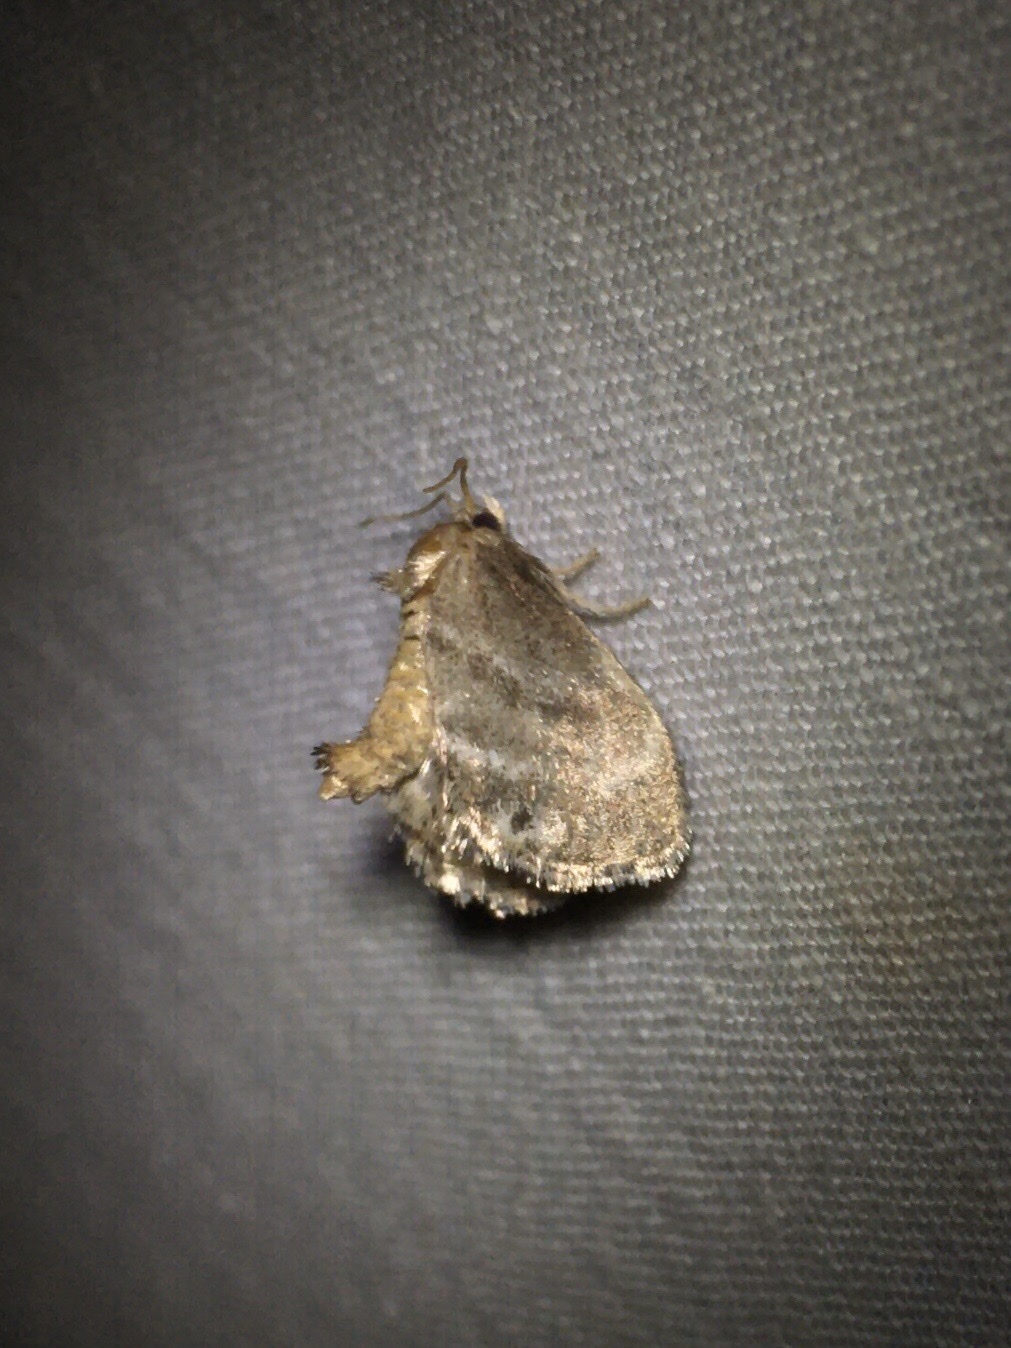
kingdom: Animalia
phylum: Arthropoda
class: Insecta
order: Lepidoptera
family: Limacodidae
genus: Packardia
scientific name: Packardia elegans
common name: Elegant tailed slug moth
